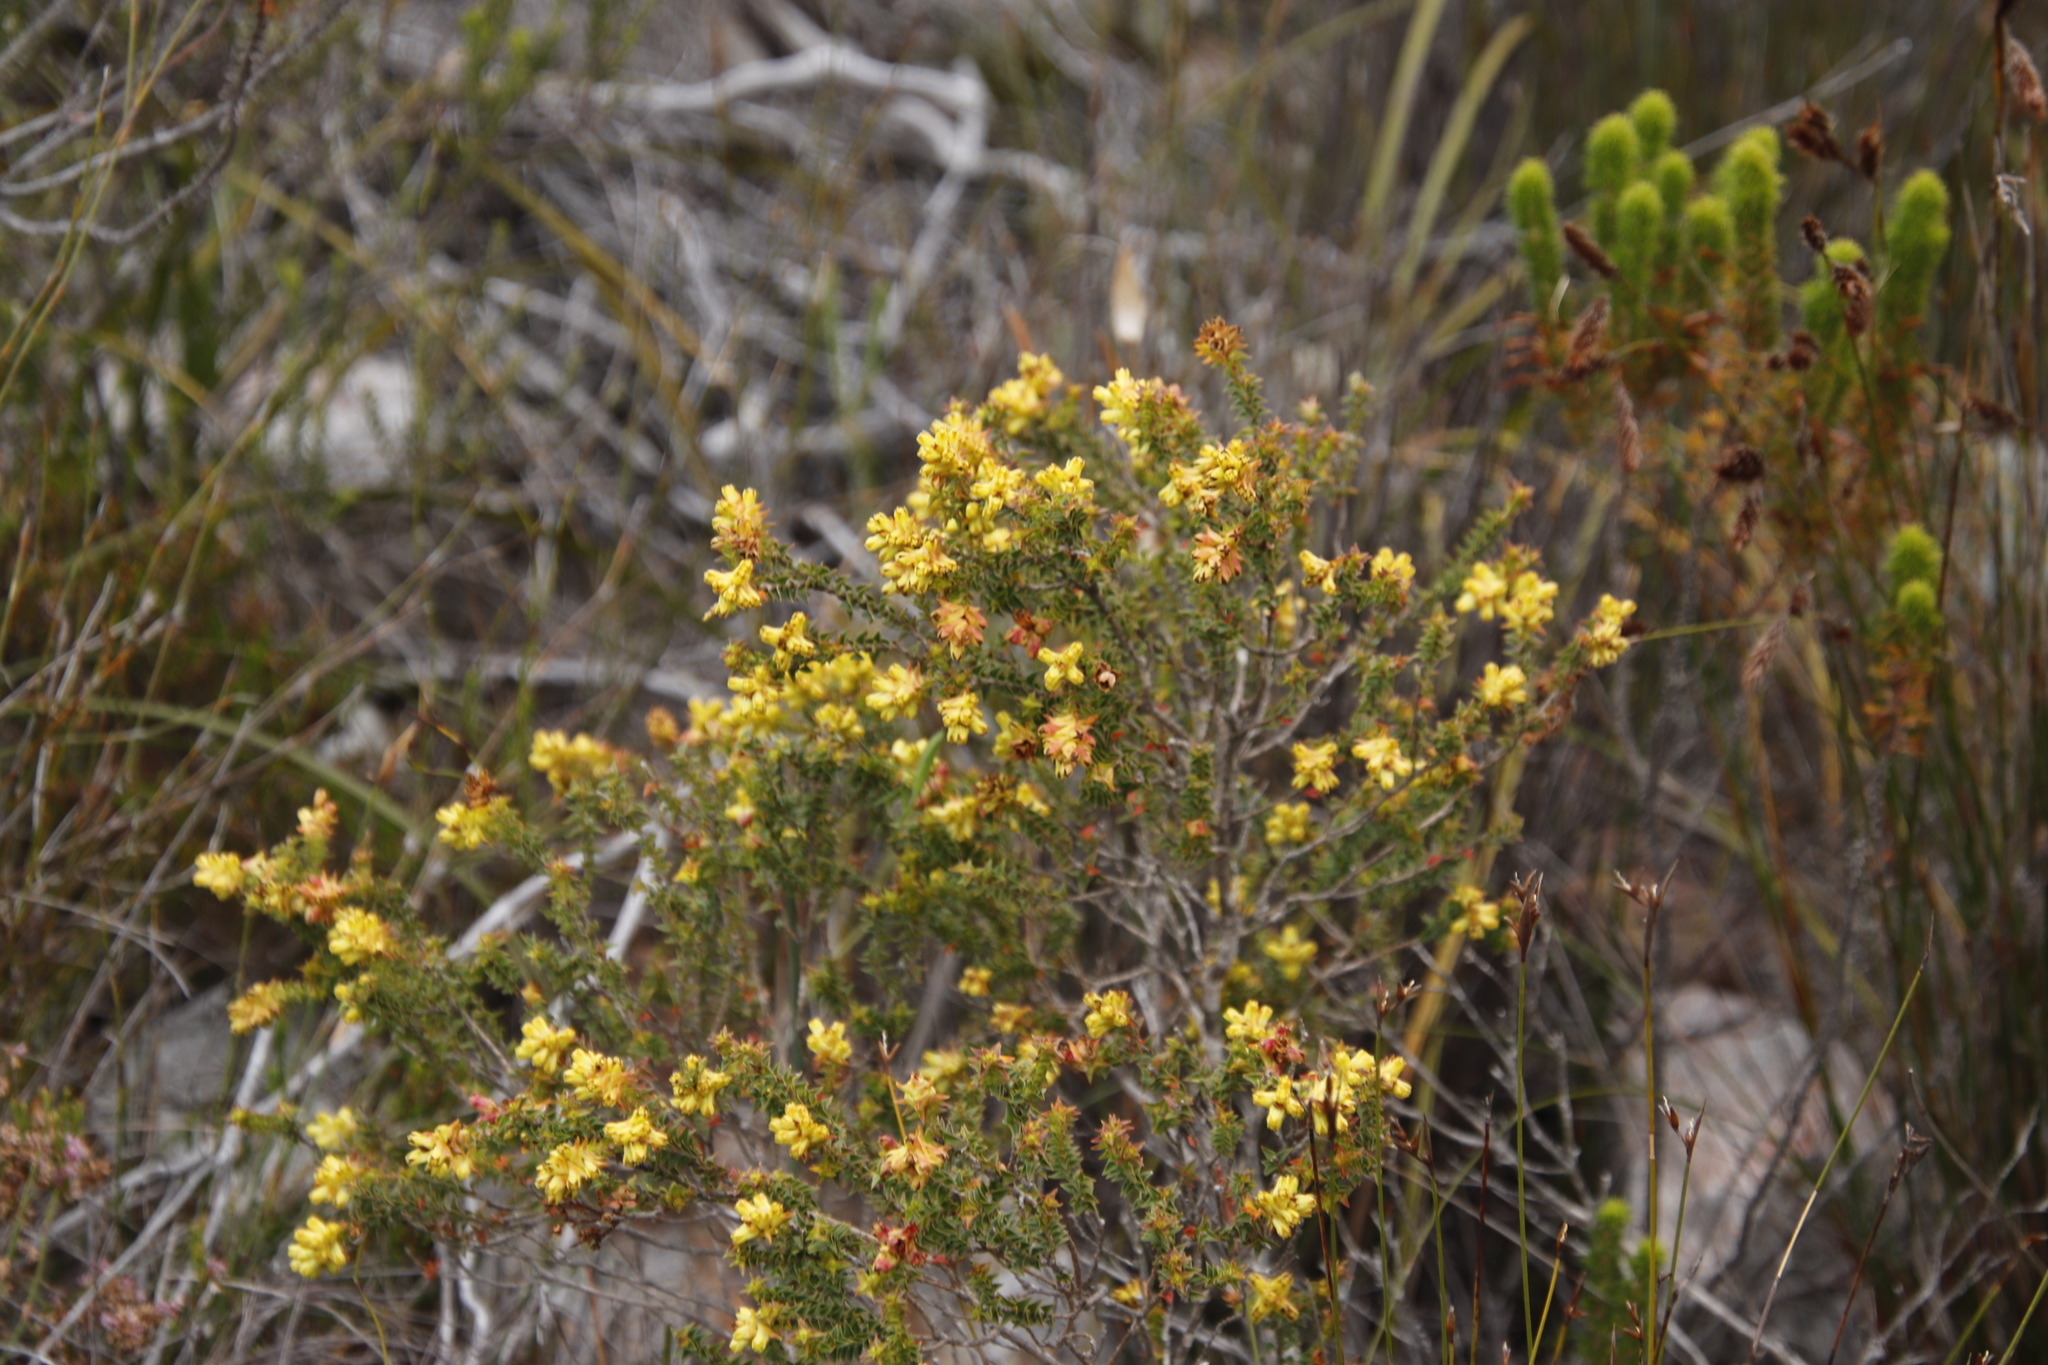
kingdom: Plantae
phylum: Tracheophyta
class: Magnoliopsida
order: Myrtales
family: Penaeaceae
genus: Penaea
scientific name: Penaea mucronata
